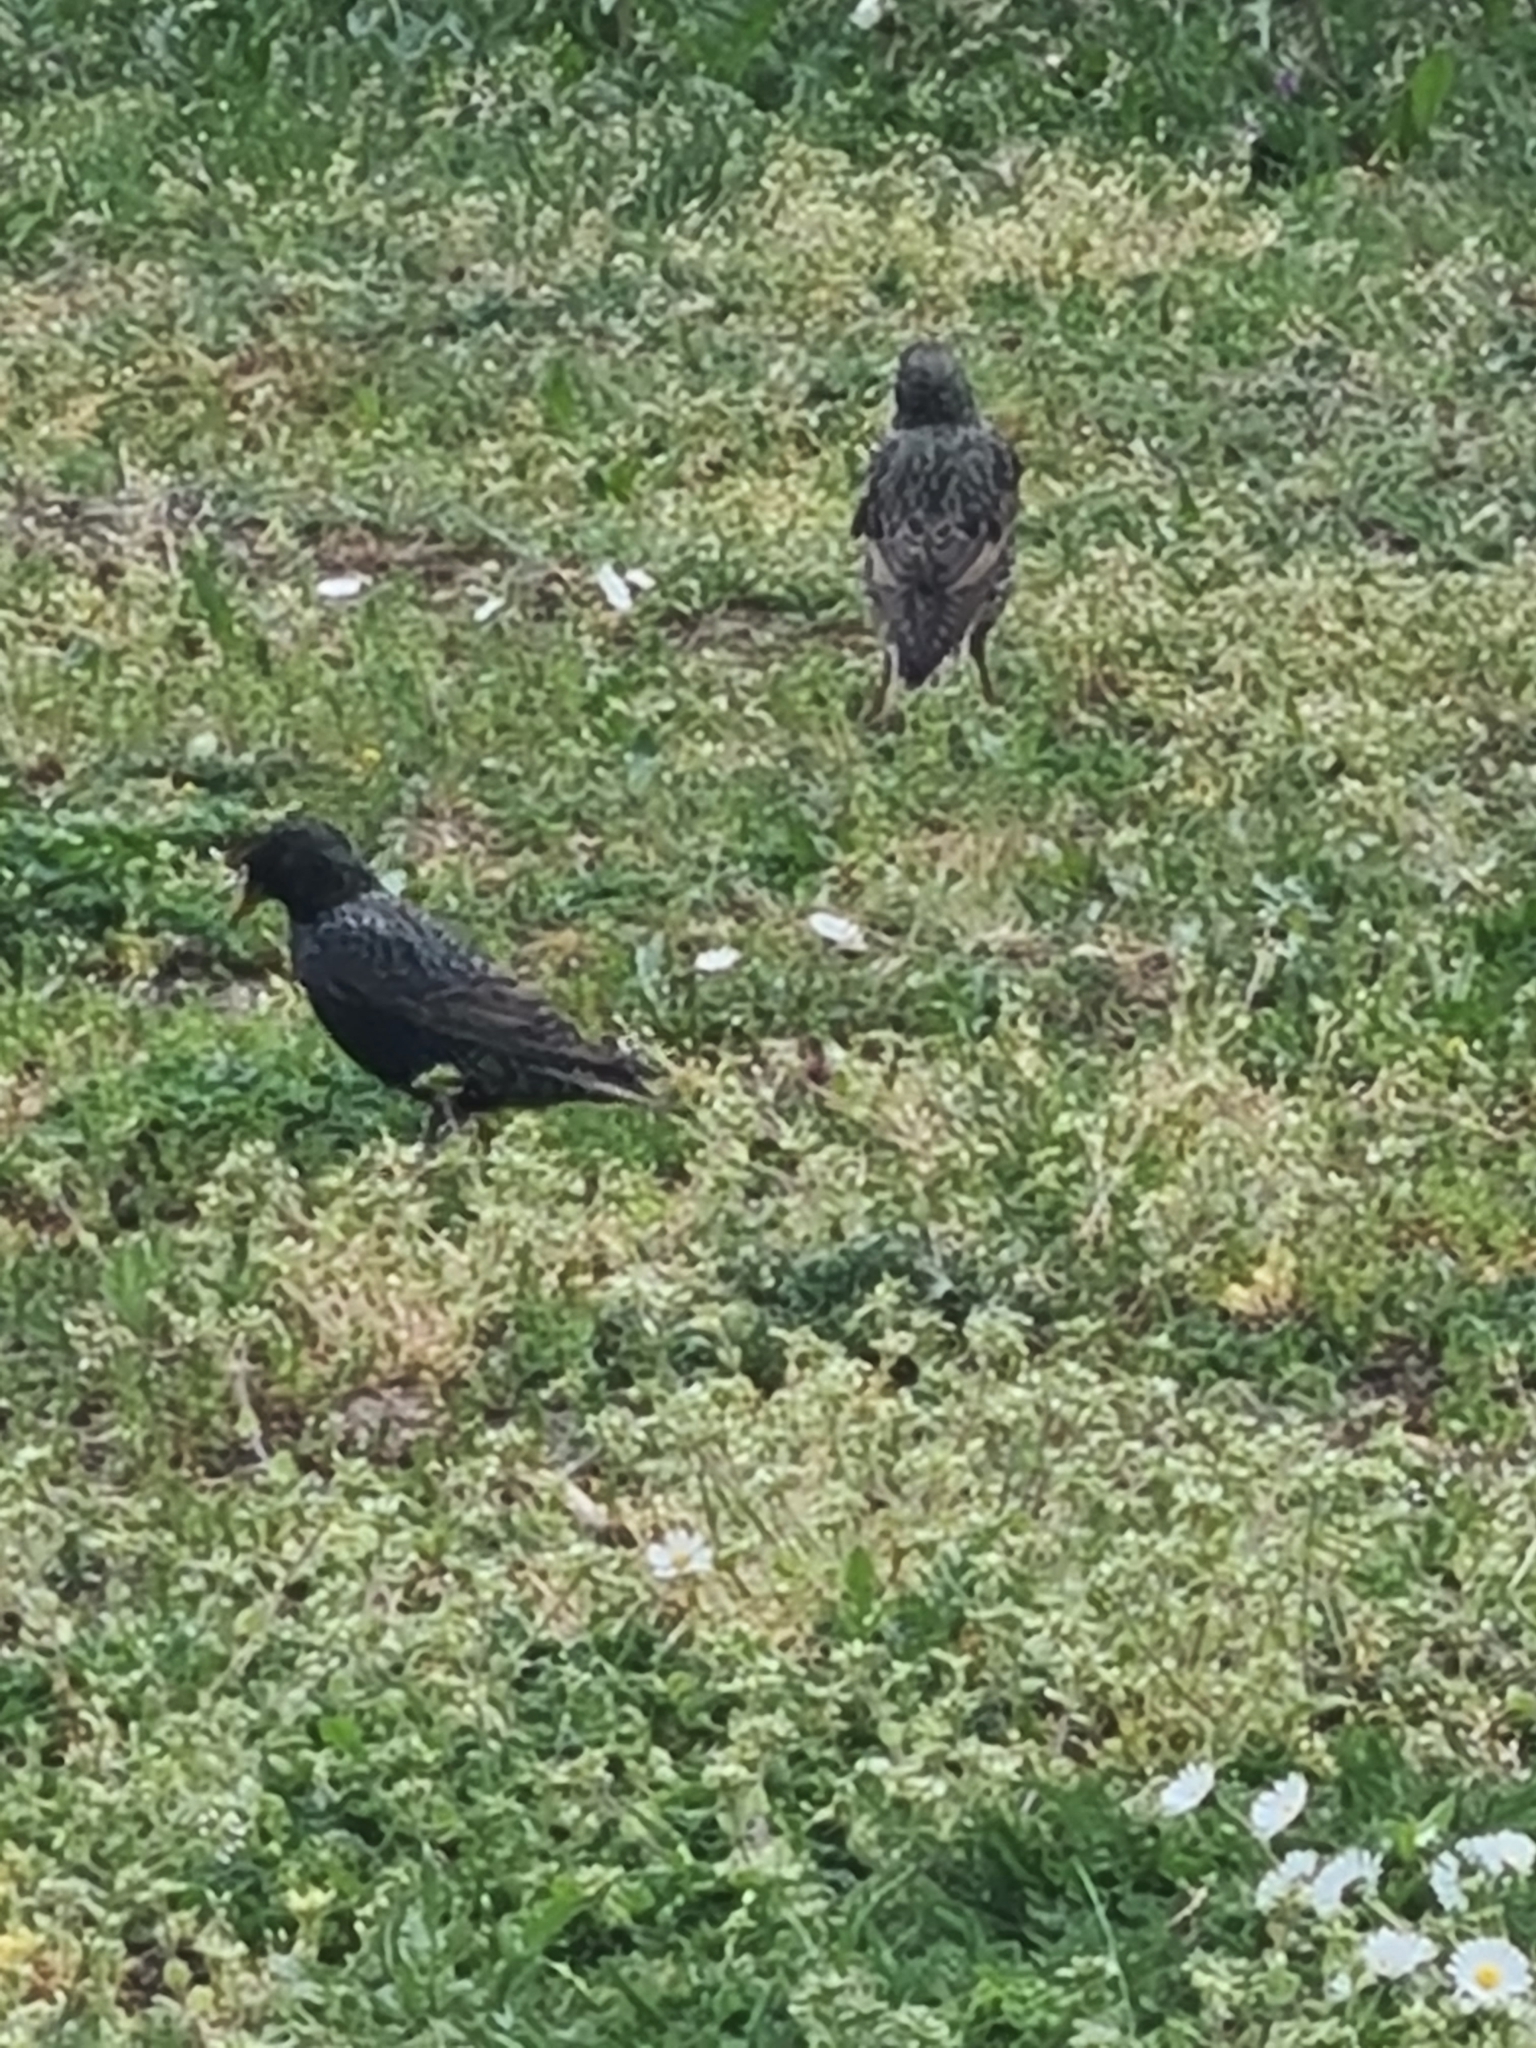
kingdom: Animalia
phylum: Chordata
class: Aves
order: Passeriformes
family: Sturnidae
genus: Sturnus
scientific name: Sturnus vulgaris
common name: Common starling
